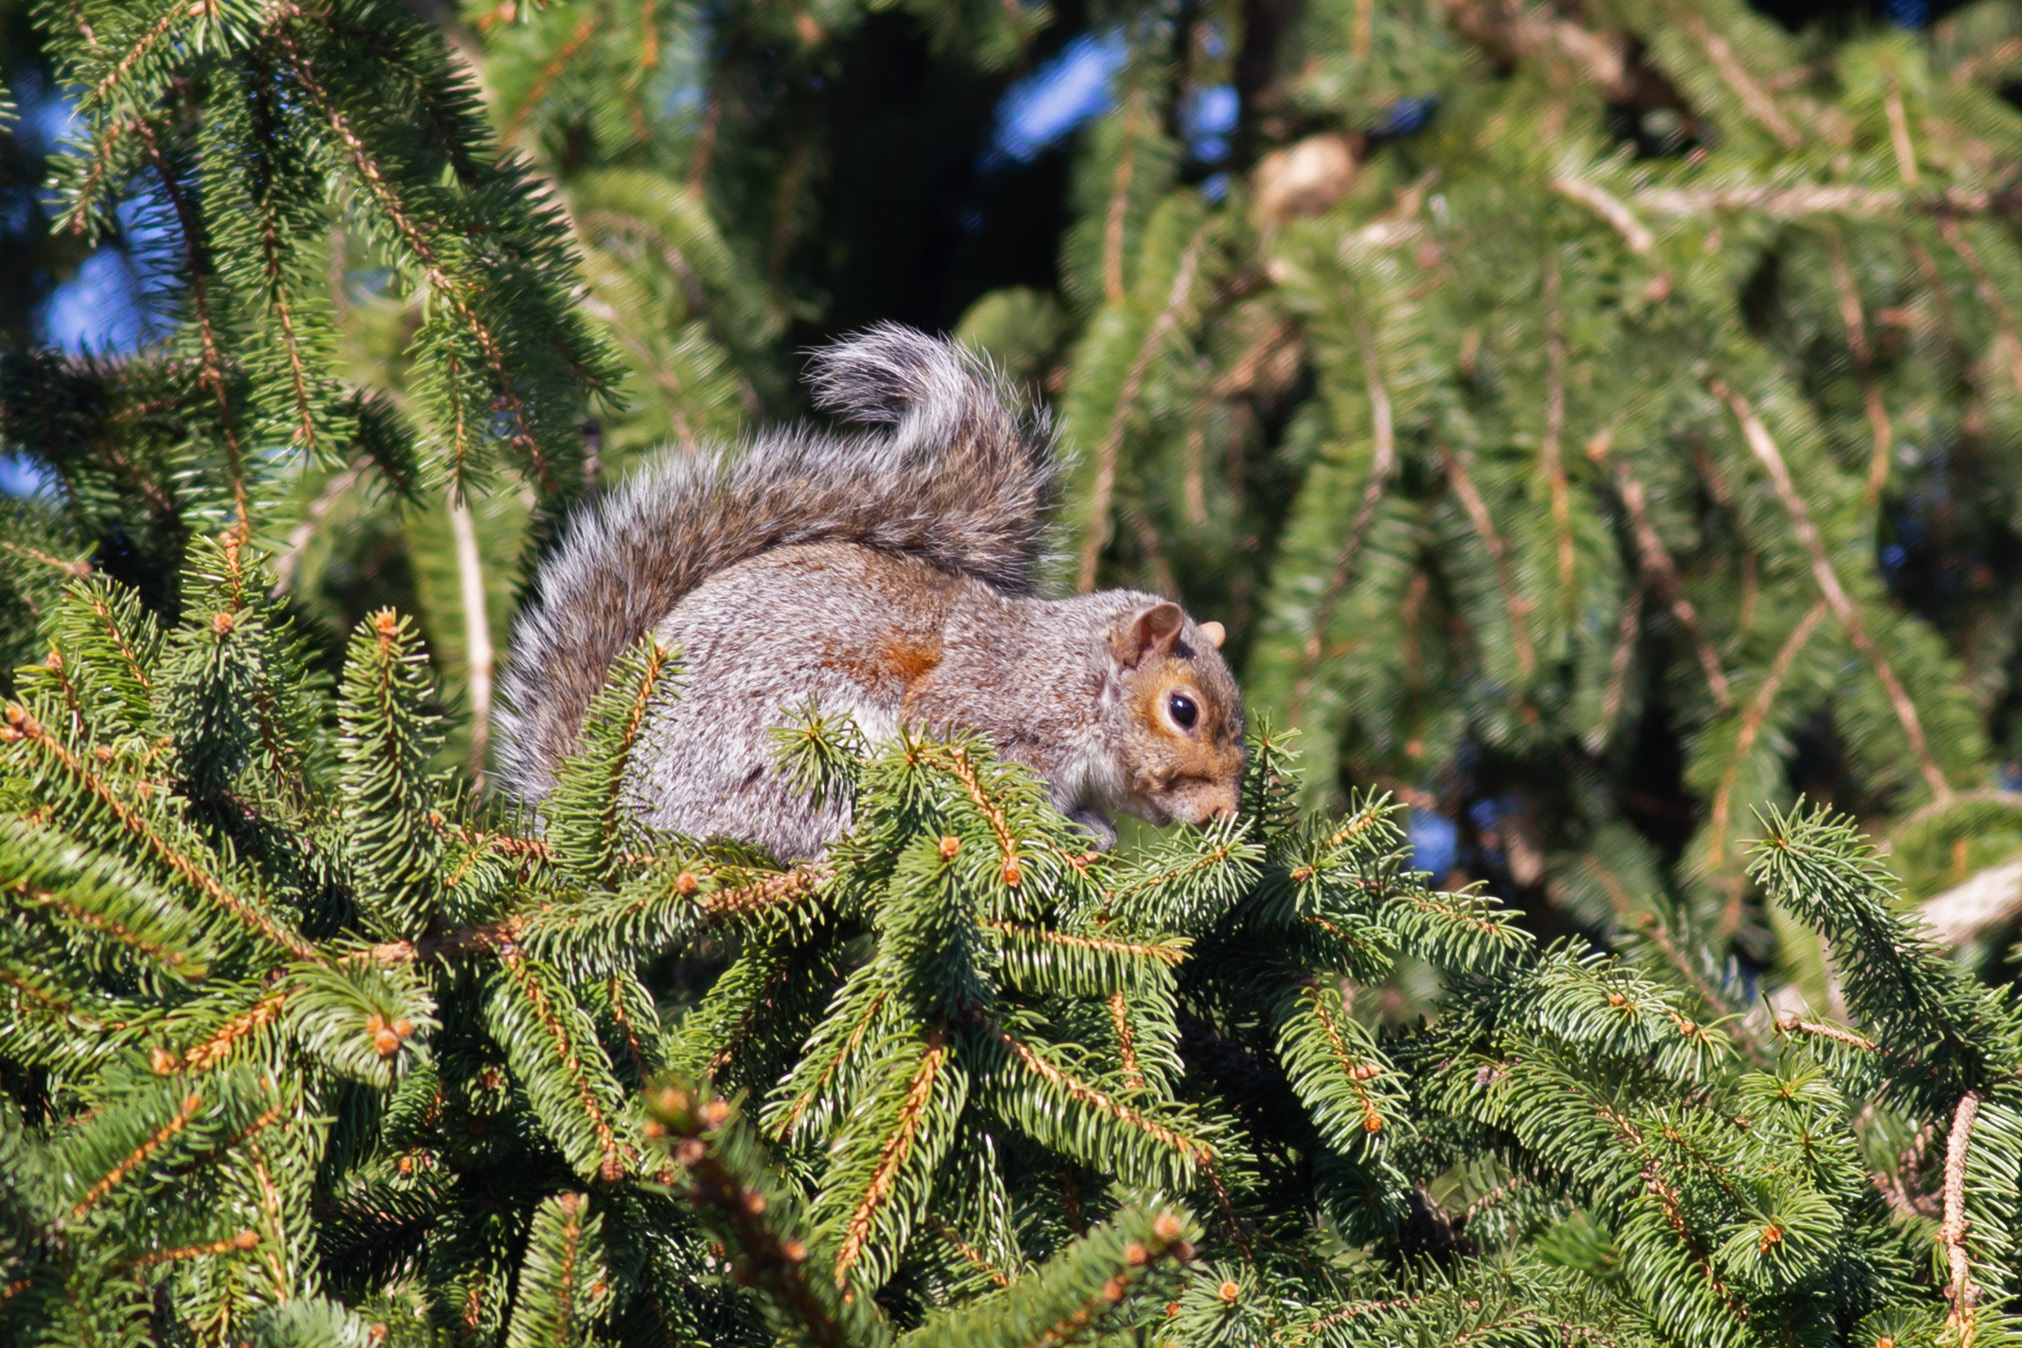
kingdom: Animalia
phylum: Chordata
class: Mammalia
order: Rodentia
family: Sciuridae
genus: Sciurus
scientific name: Sciurus carolinensis
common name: Eastern gray squirrel
